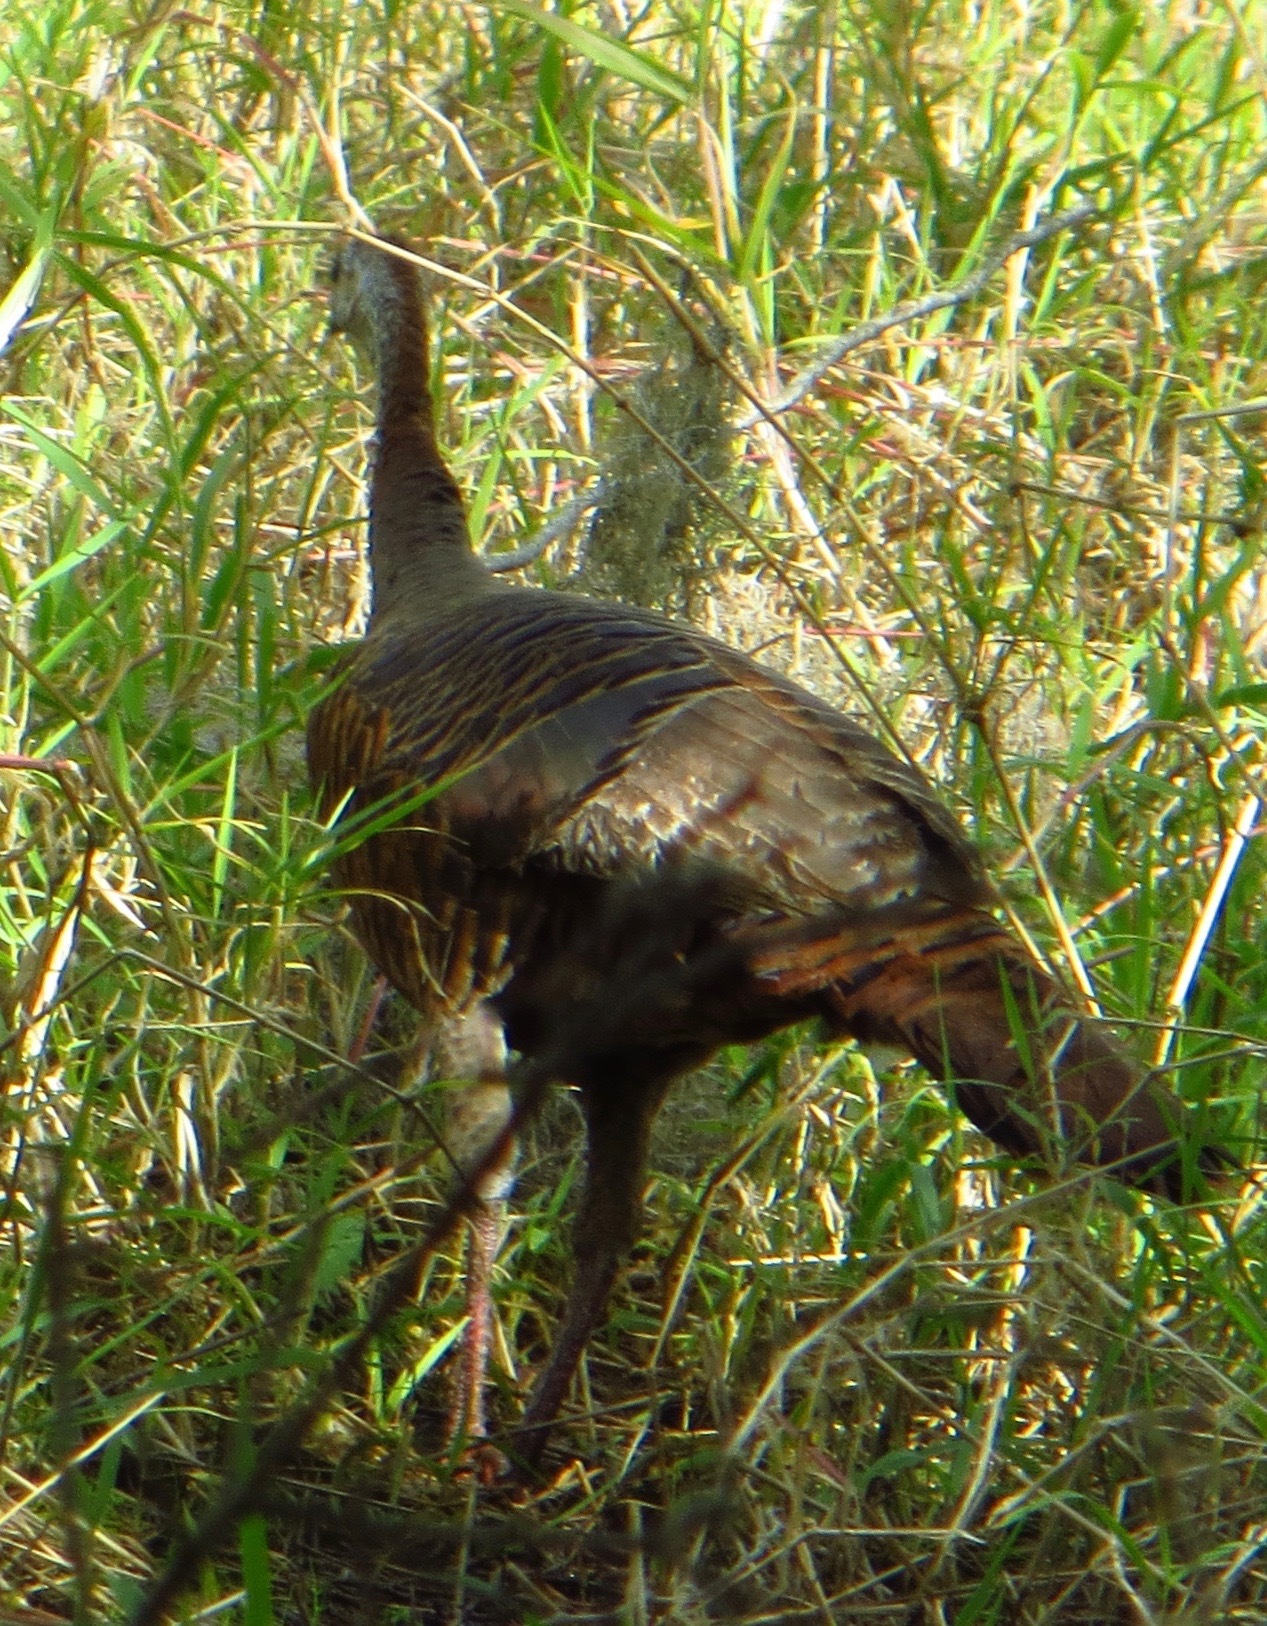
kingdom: Animalia
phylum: Chordata
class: Aves
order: Galliformes
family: Phasianidae
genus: Meleagris
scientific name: Meleagris gallopavo
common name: Wild turkey
